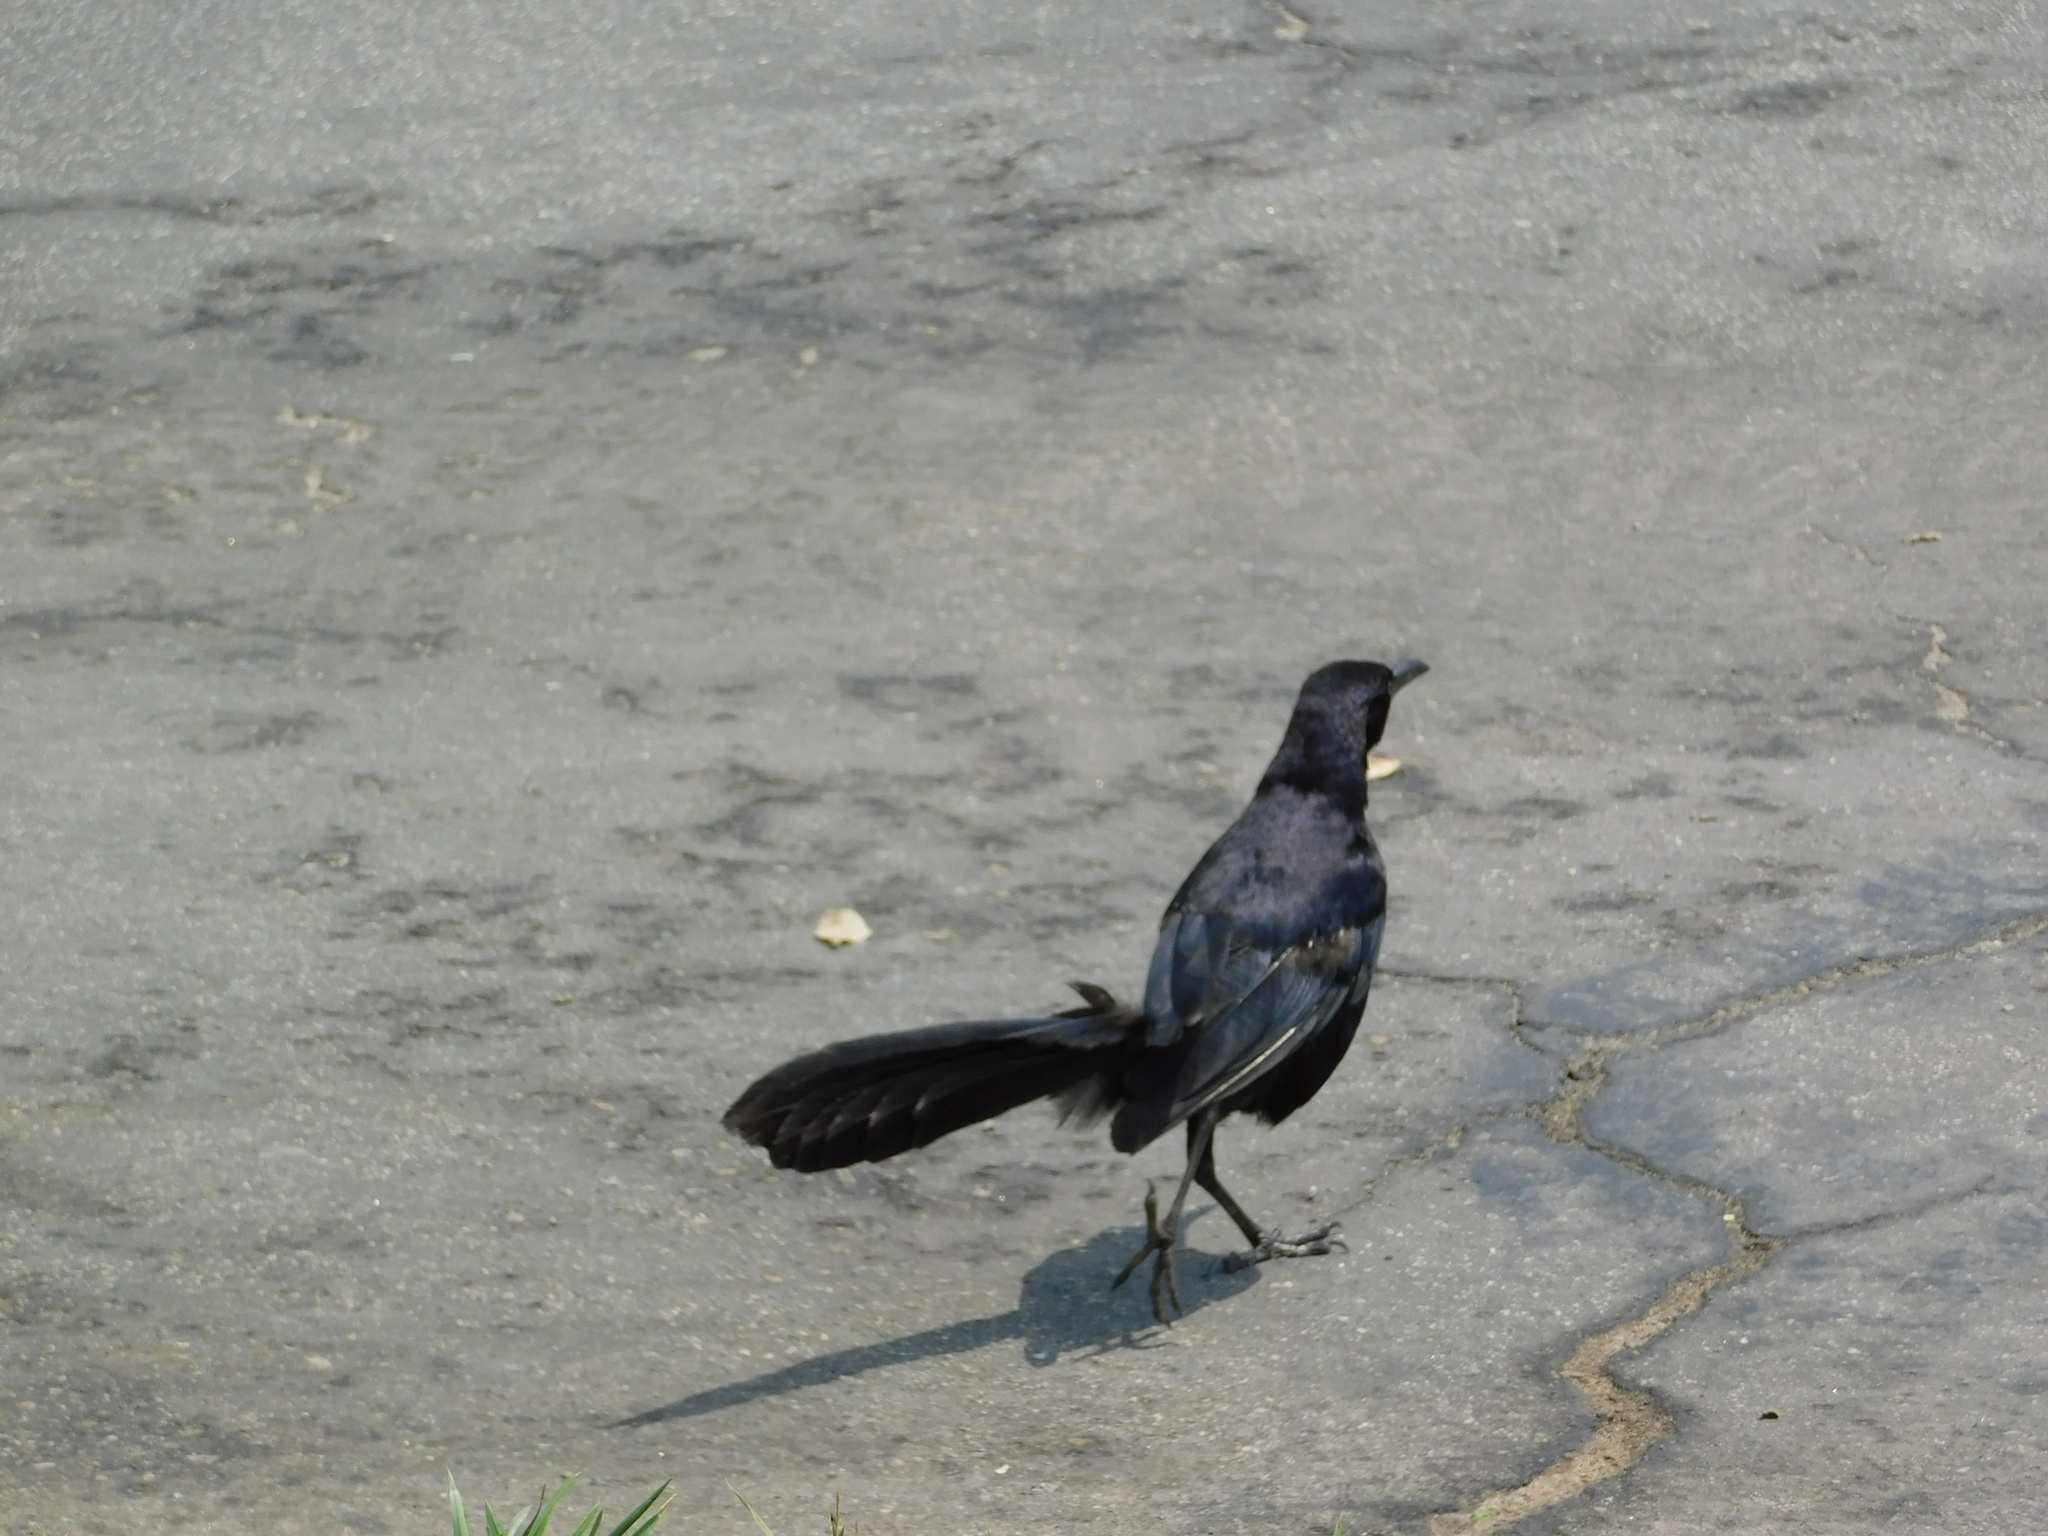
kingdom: Animalia
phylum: Chordata
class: Aves
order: Passeriformes
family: Icteridae
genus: Quiscalus
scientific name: Quiscalus mexicanus
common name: Great-tailed grackle
